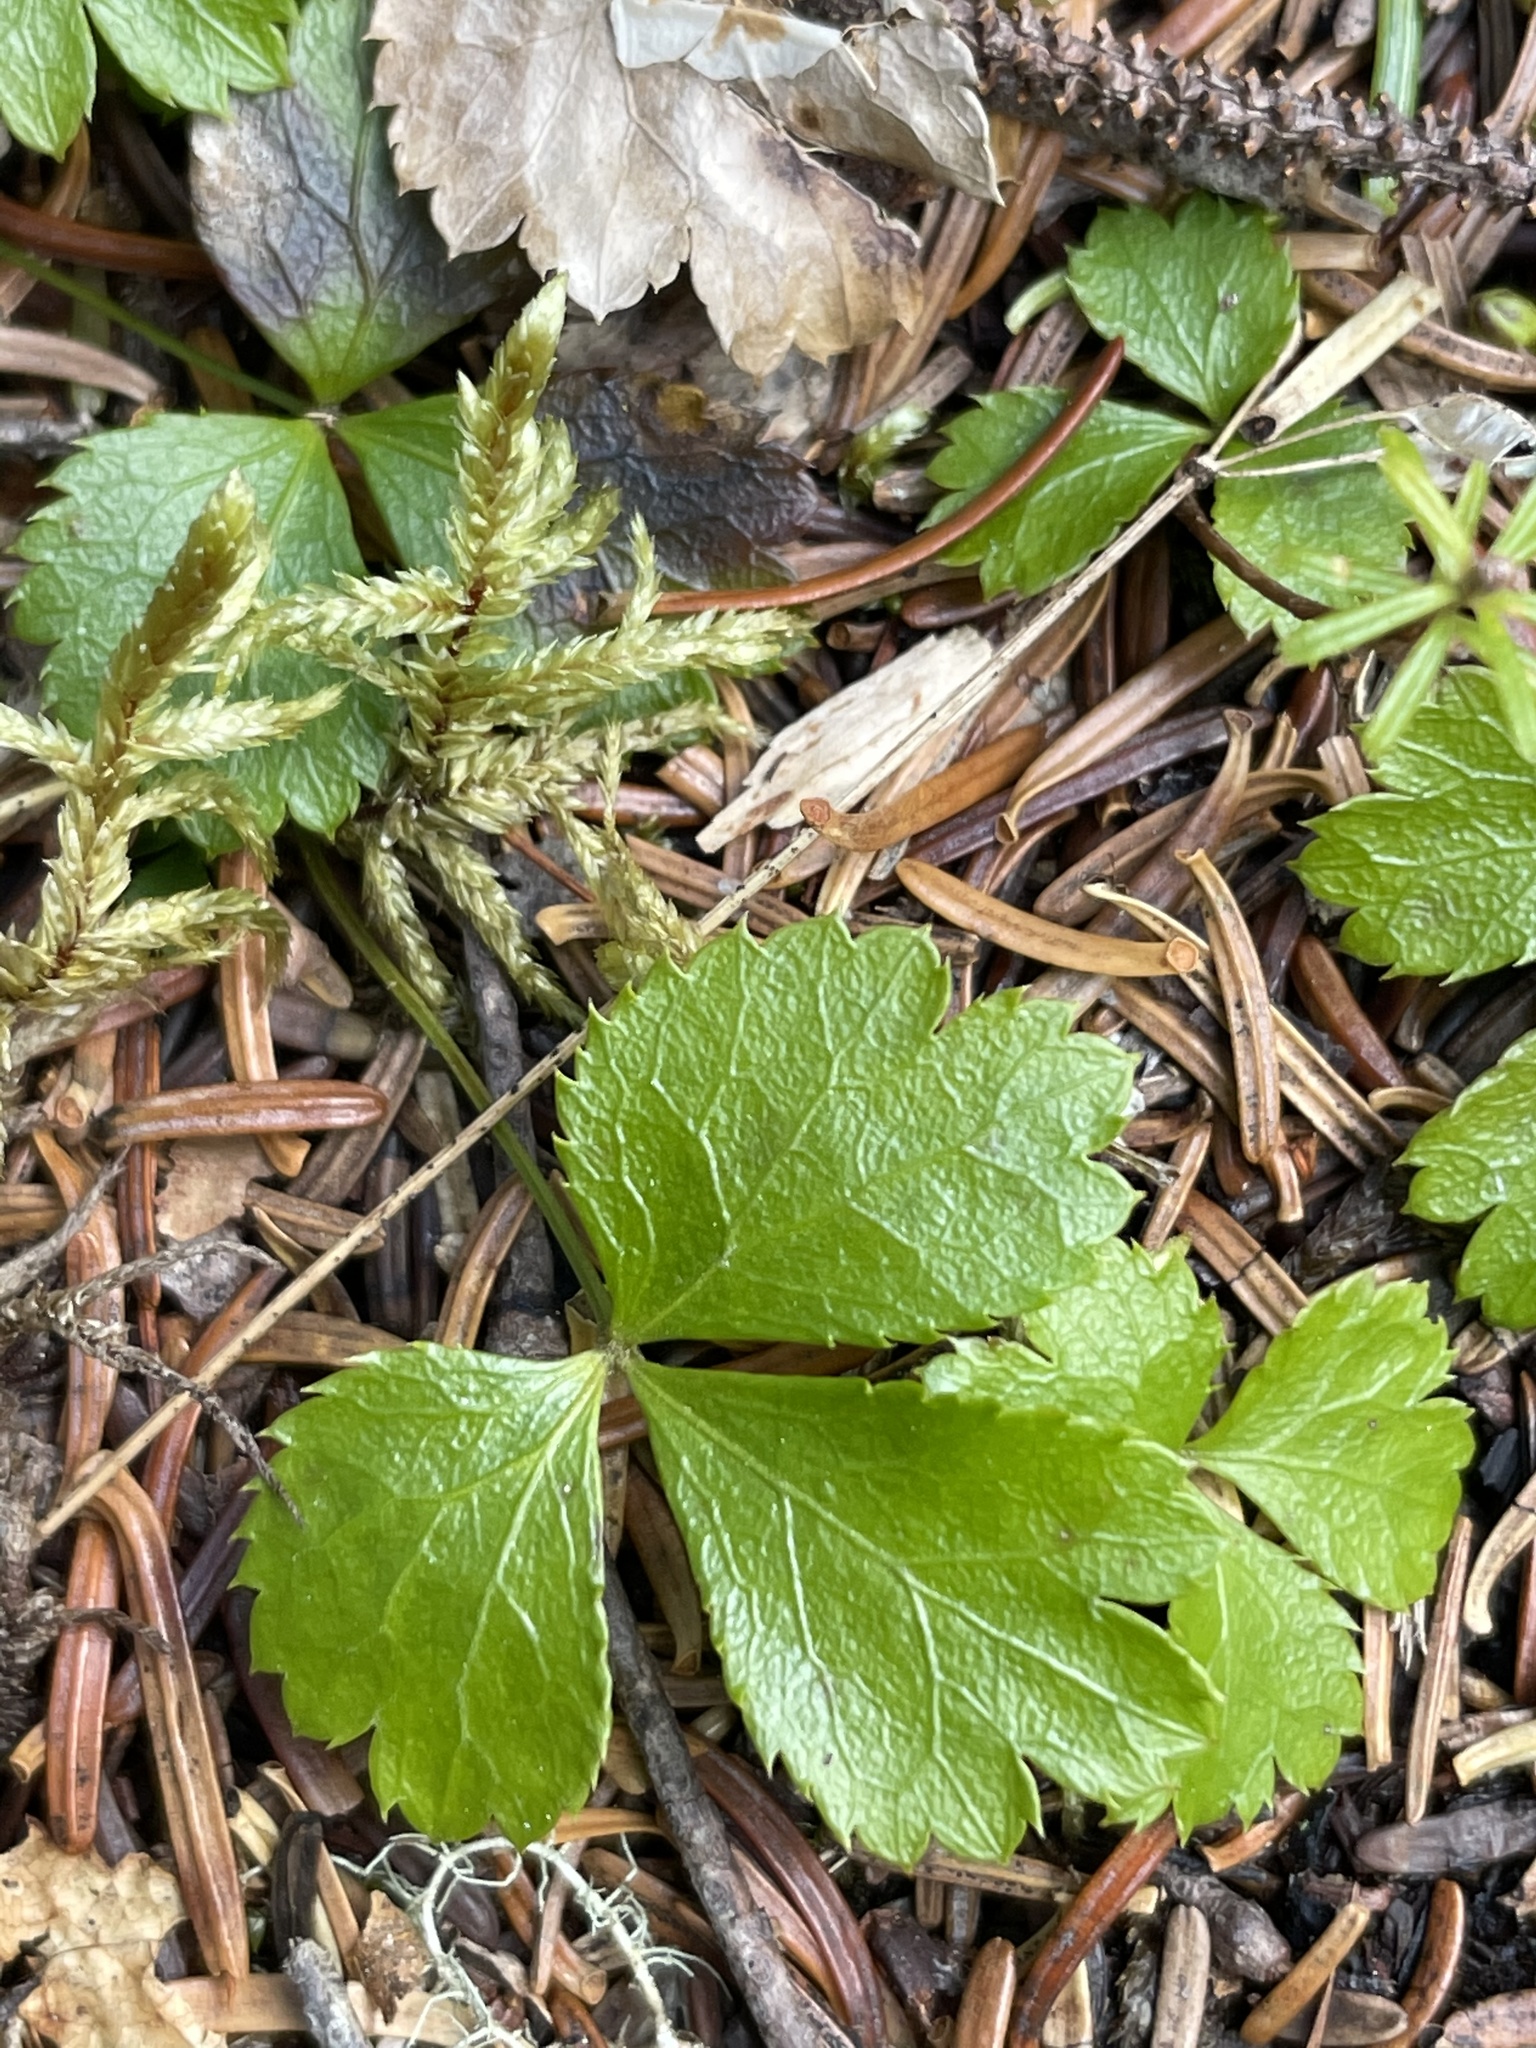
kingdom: Plantae
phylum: Tracheophyta
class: Magnoliopsida
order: Ranunculales
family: Ranunculaceae
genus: Coptis
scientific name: Coptis trifolia
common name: Canker-root
